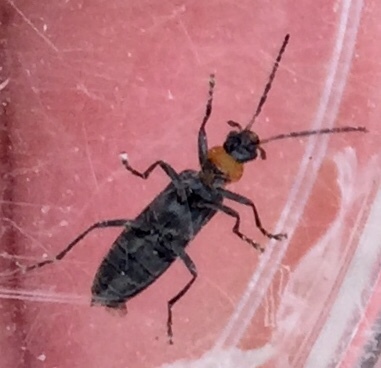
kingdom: Animalia
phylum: Arthropoda
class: Insecta
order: Coleoptera
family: Oedemeridae
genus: Ischnomera
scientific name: Ischnomera
